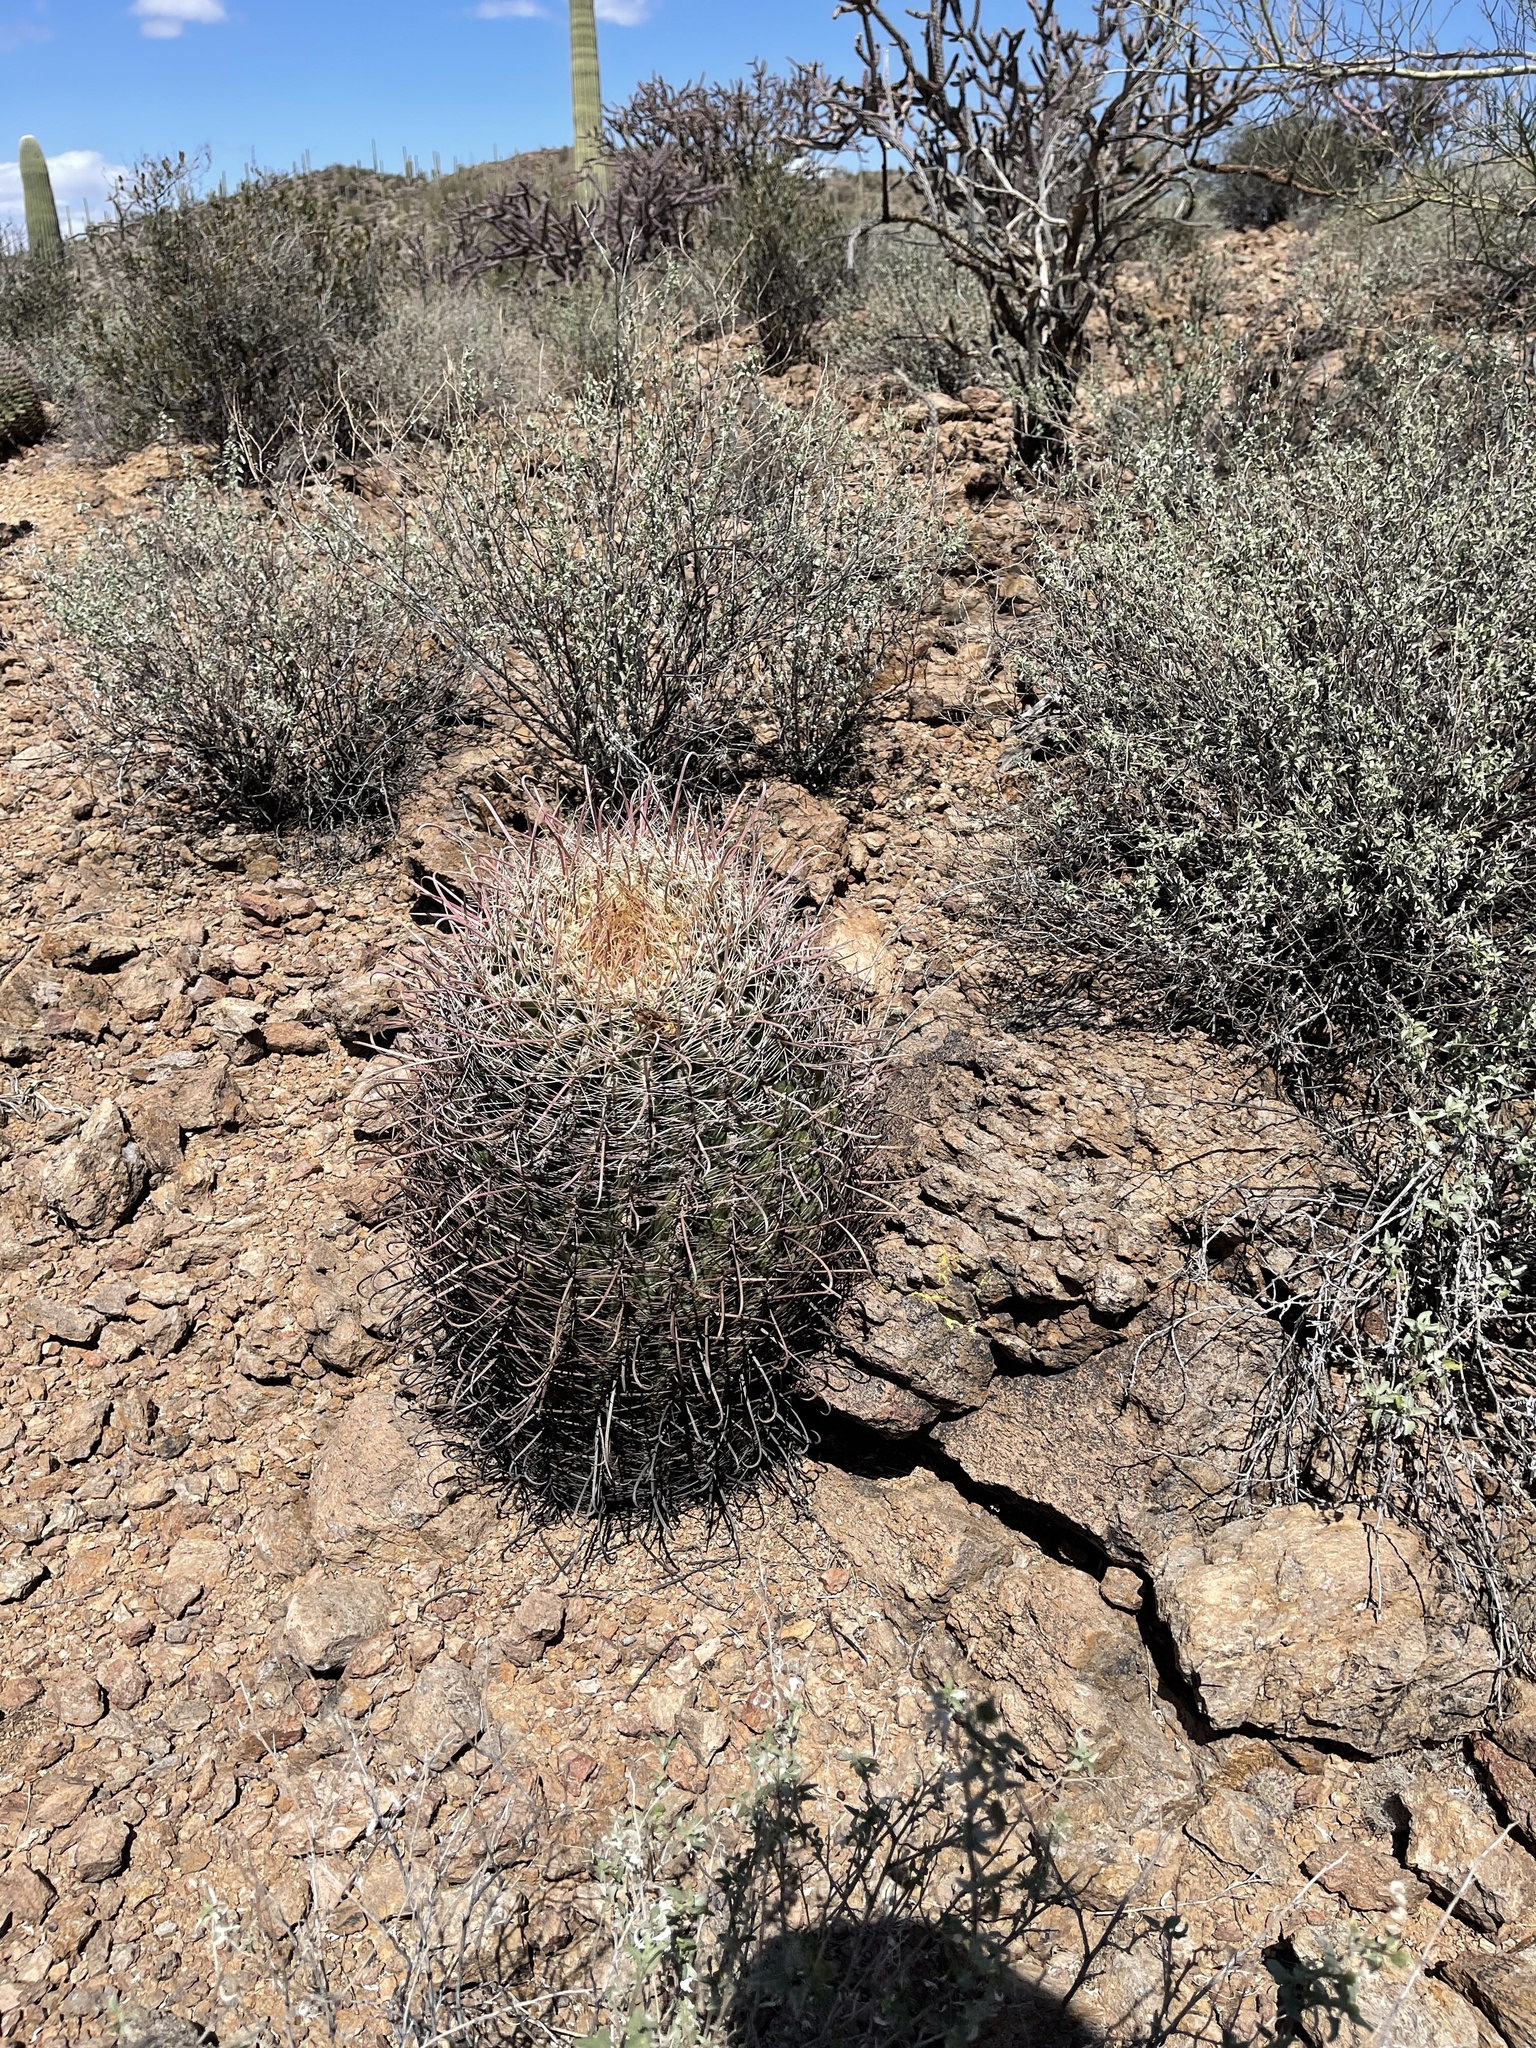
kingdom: Plantae
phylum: Tracheophyta
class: Magnoliopsida
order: Caryophyllales
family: Cactaceae
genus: Ferocactus
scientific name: Ferocactus wislizeni
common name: Candy barrel cactus
